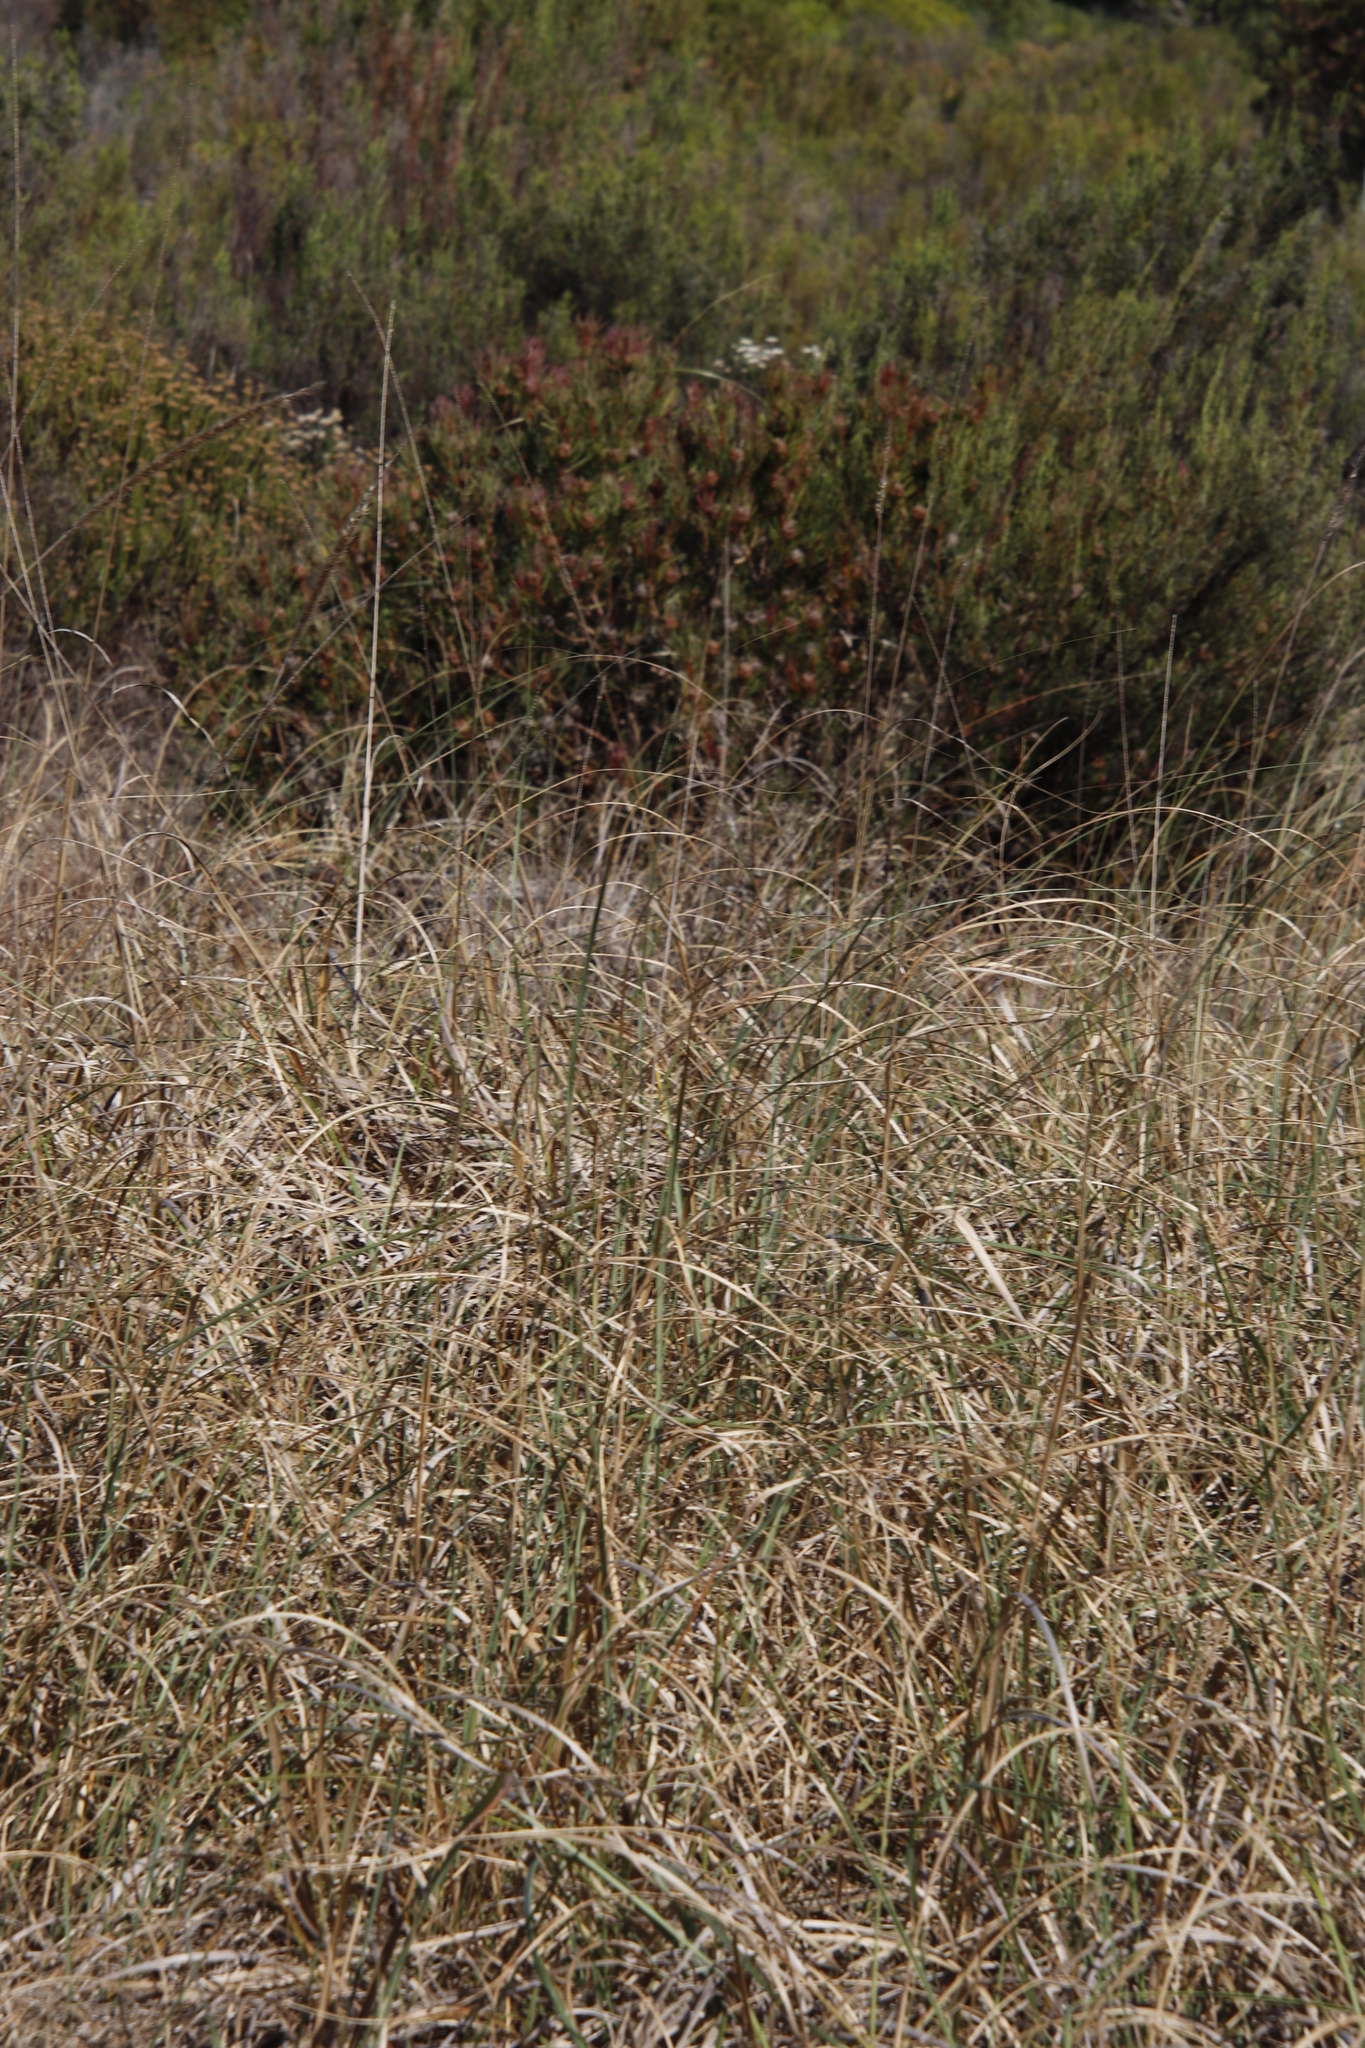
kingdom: Plantae
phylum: Tracheophyta
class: Liliopsida
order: Poales
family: Poaceae
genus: Cenchrus
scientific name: Cenchrus purpureus
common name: Elephant grass
